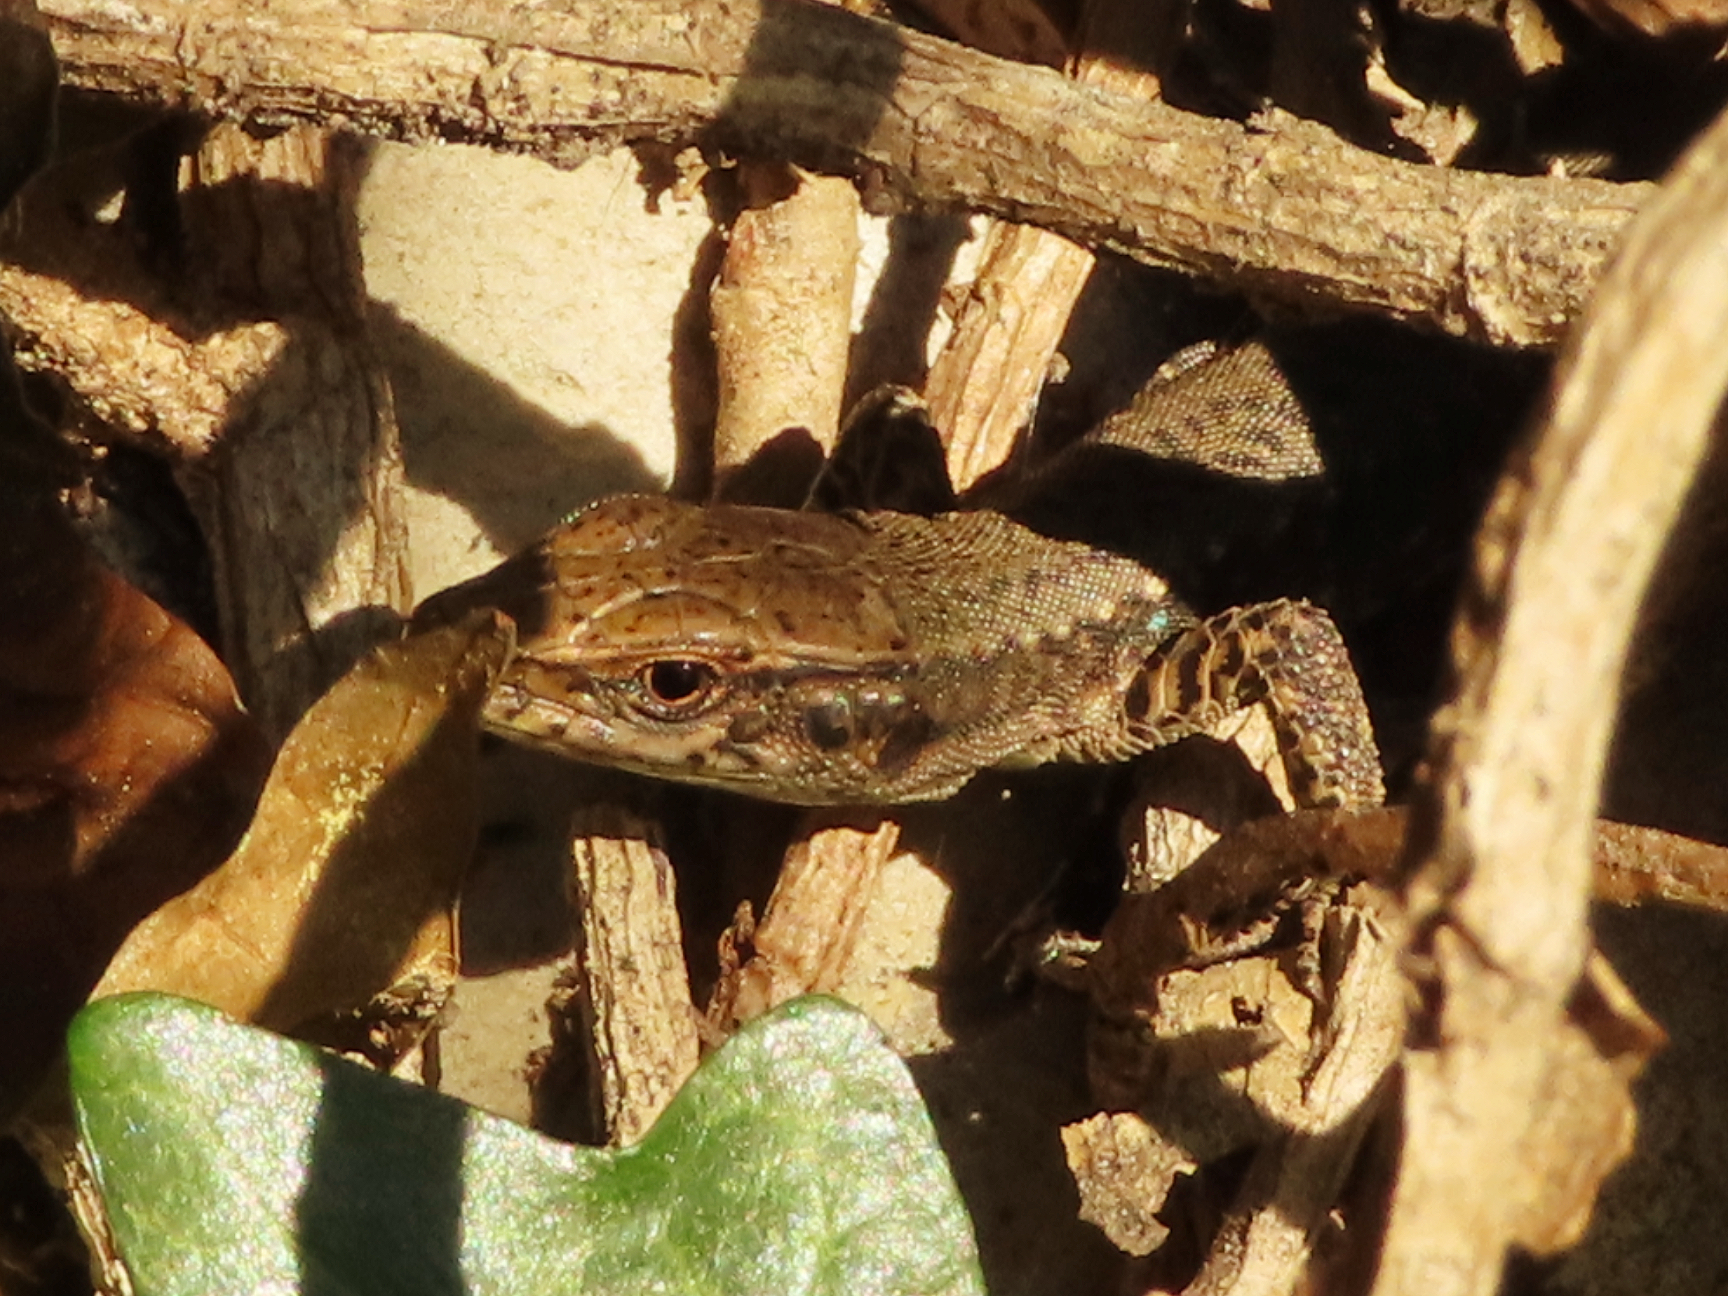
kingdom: Animalia
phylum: Chordata
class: Squamata
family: Lacertidae
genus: Darevskia
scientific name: Darevskia mixta
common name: Ajarian lizard
